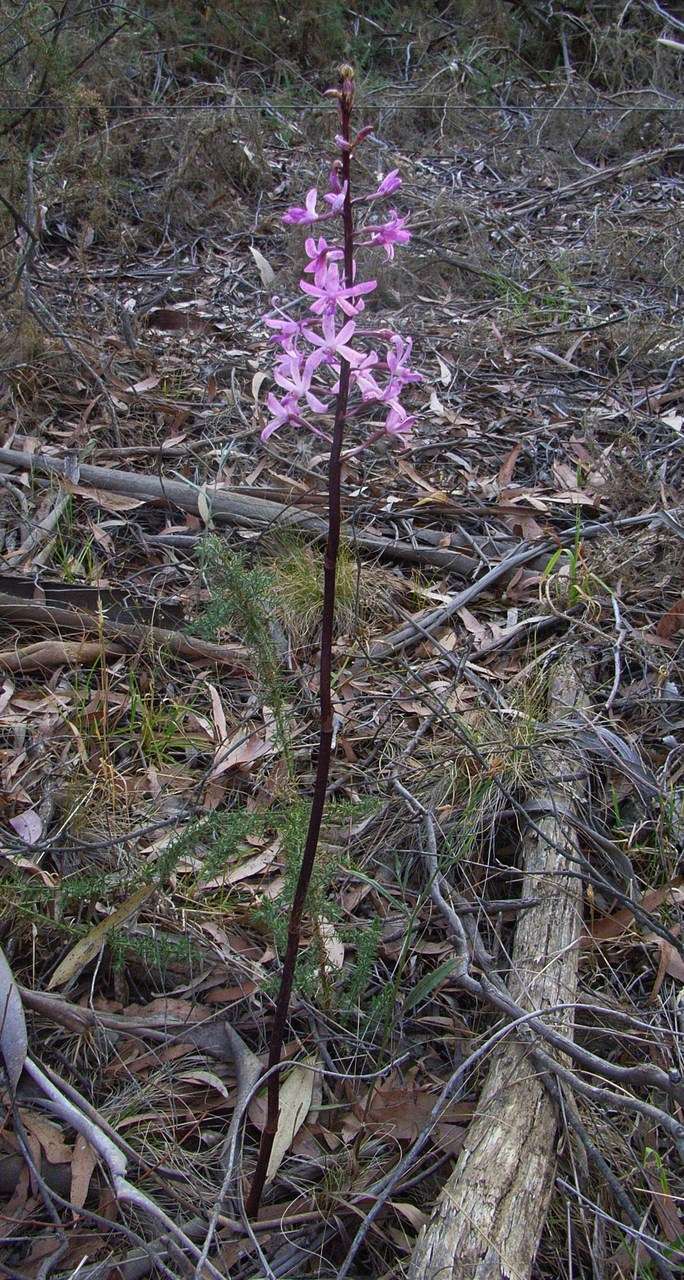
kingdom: Plantae
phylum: Tracheophyta
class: Liliopsida
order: Asparagales
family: Orchidaceae
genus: Dipodium
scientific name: Dipodium roseum
